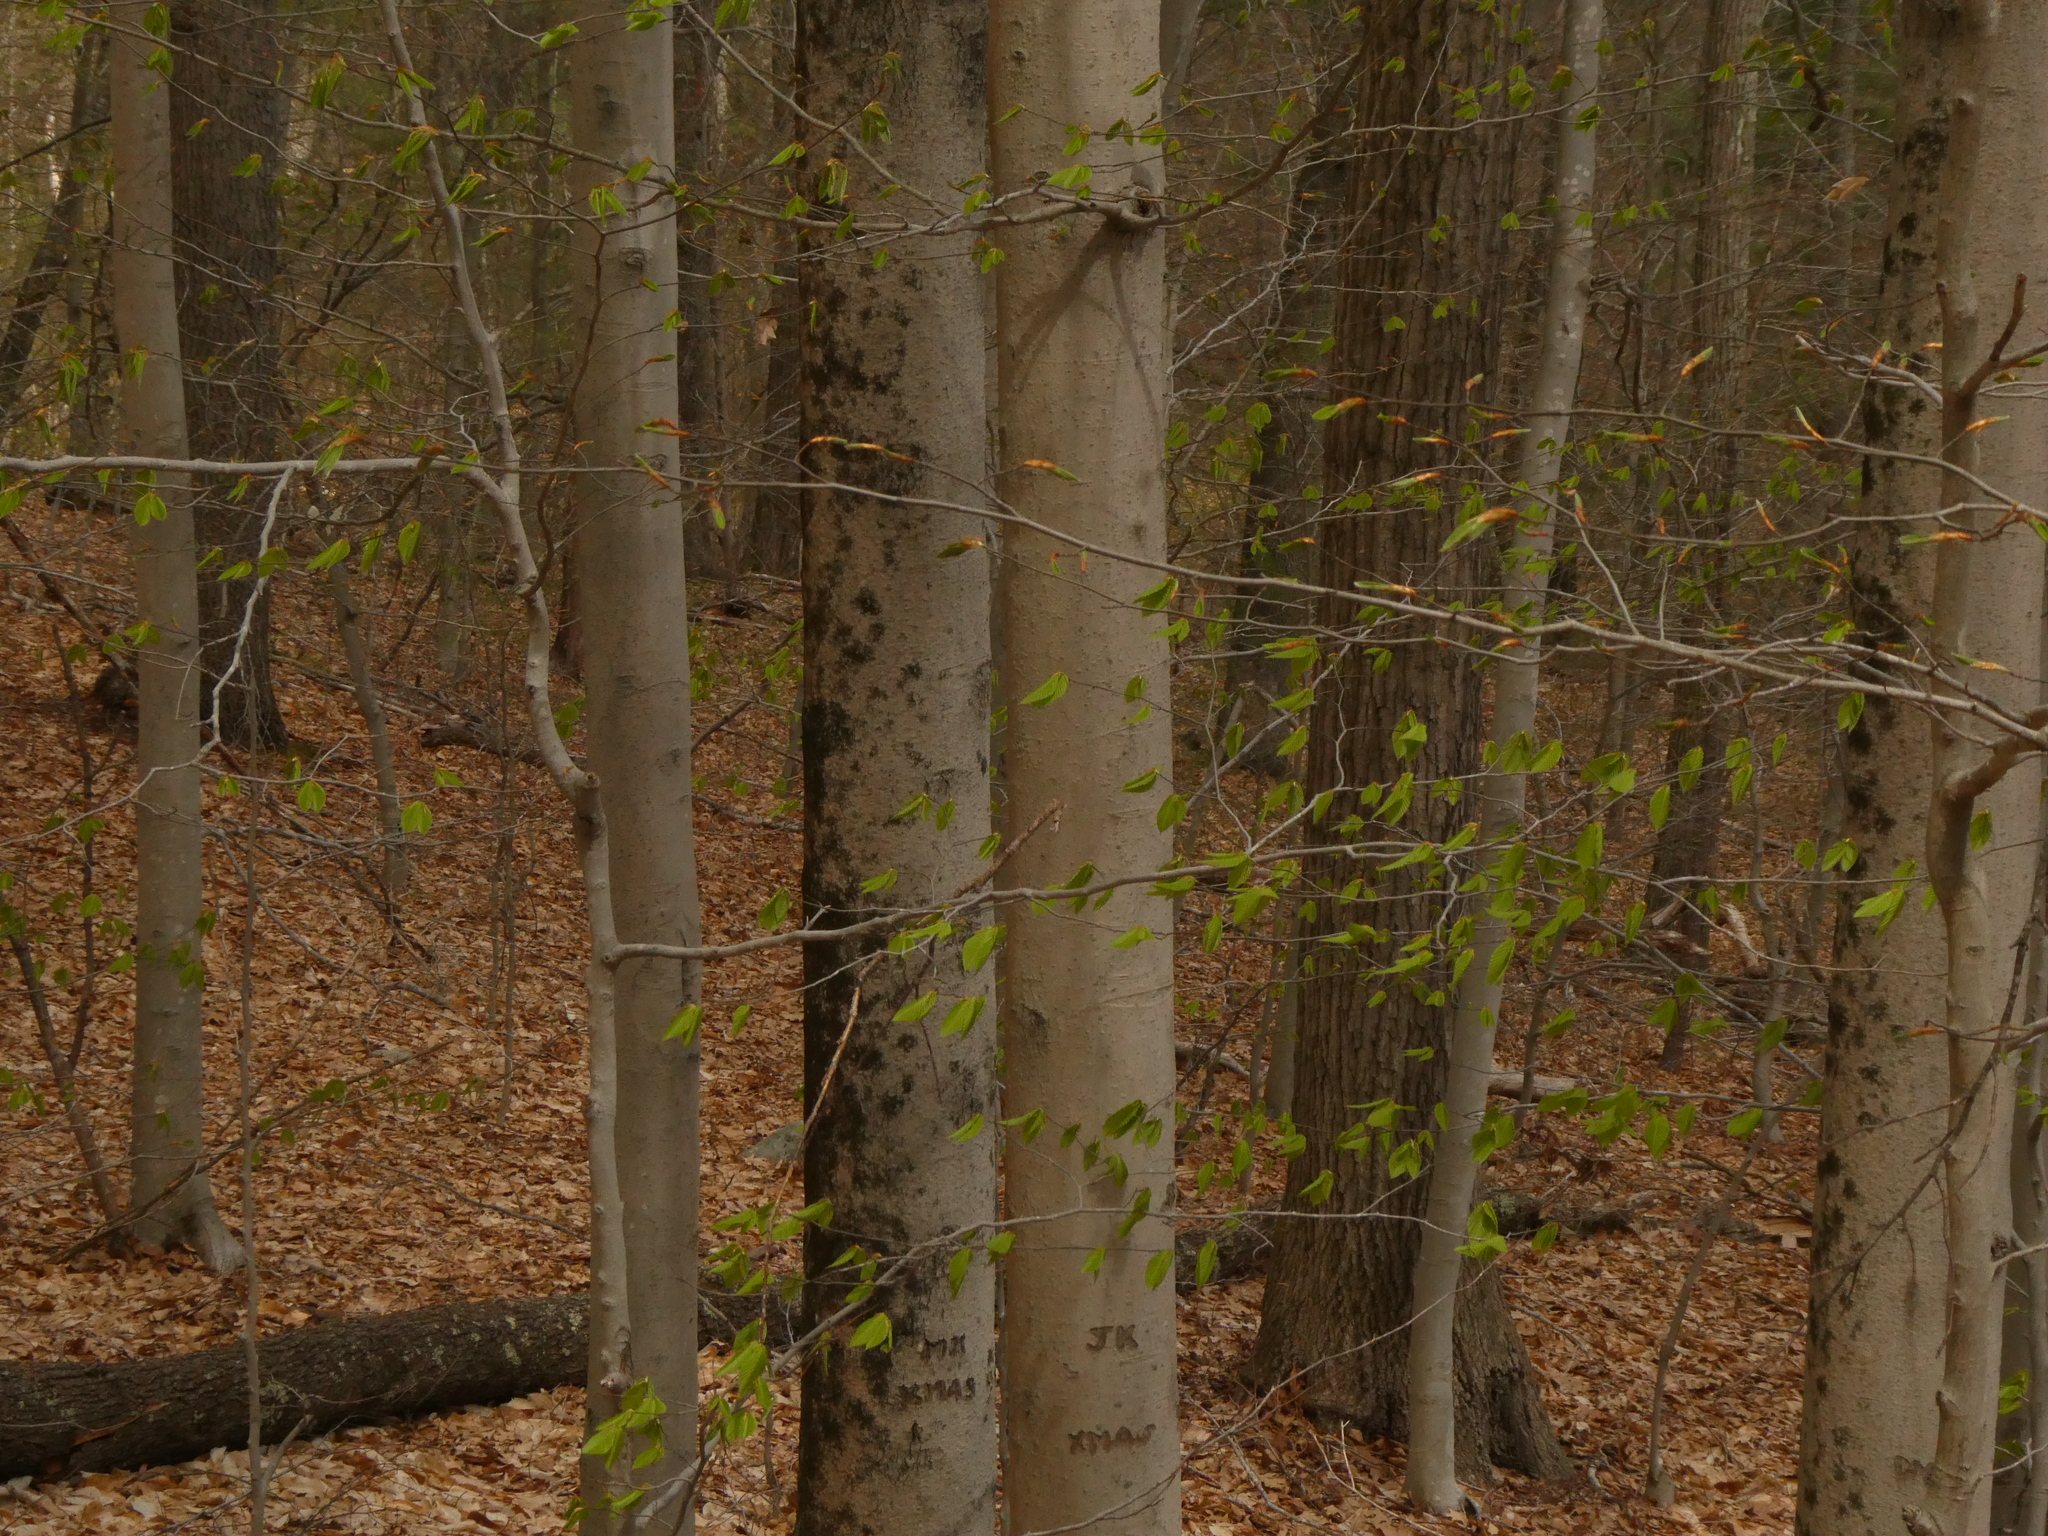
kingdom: Plantae
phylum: Tracheophyta
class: Magnoliopsida
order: Fagales
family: Fagaceae
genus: Fagus
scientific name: Fagus grandifolia
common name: American beech
